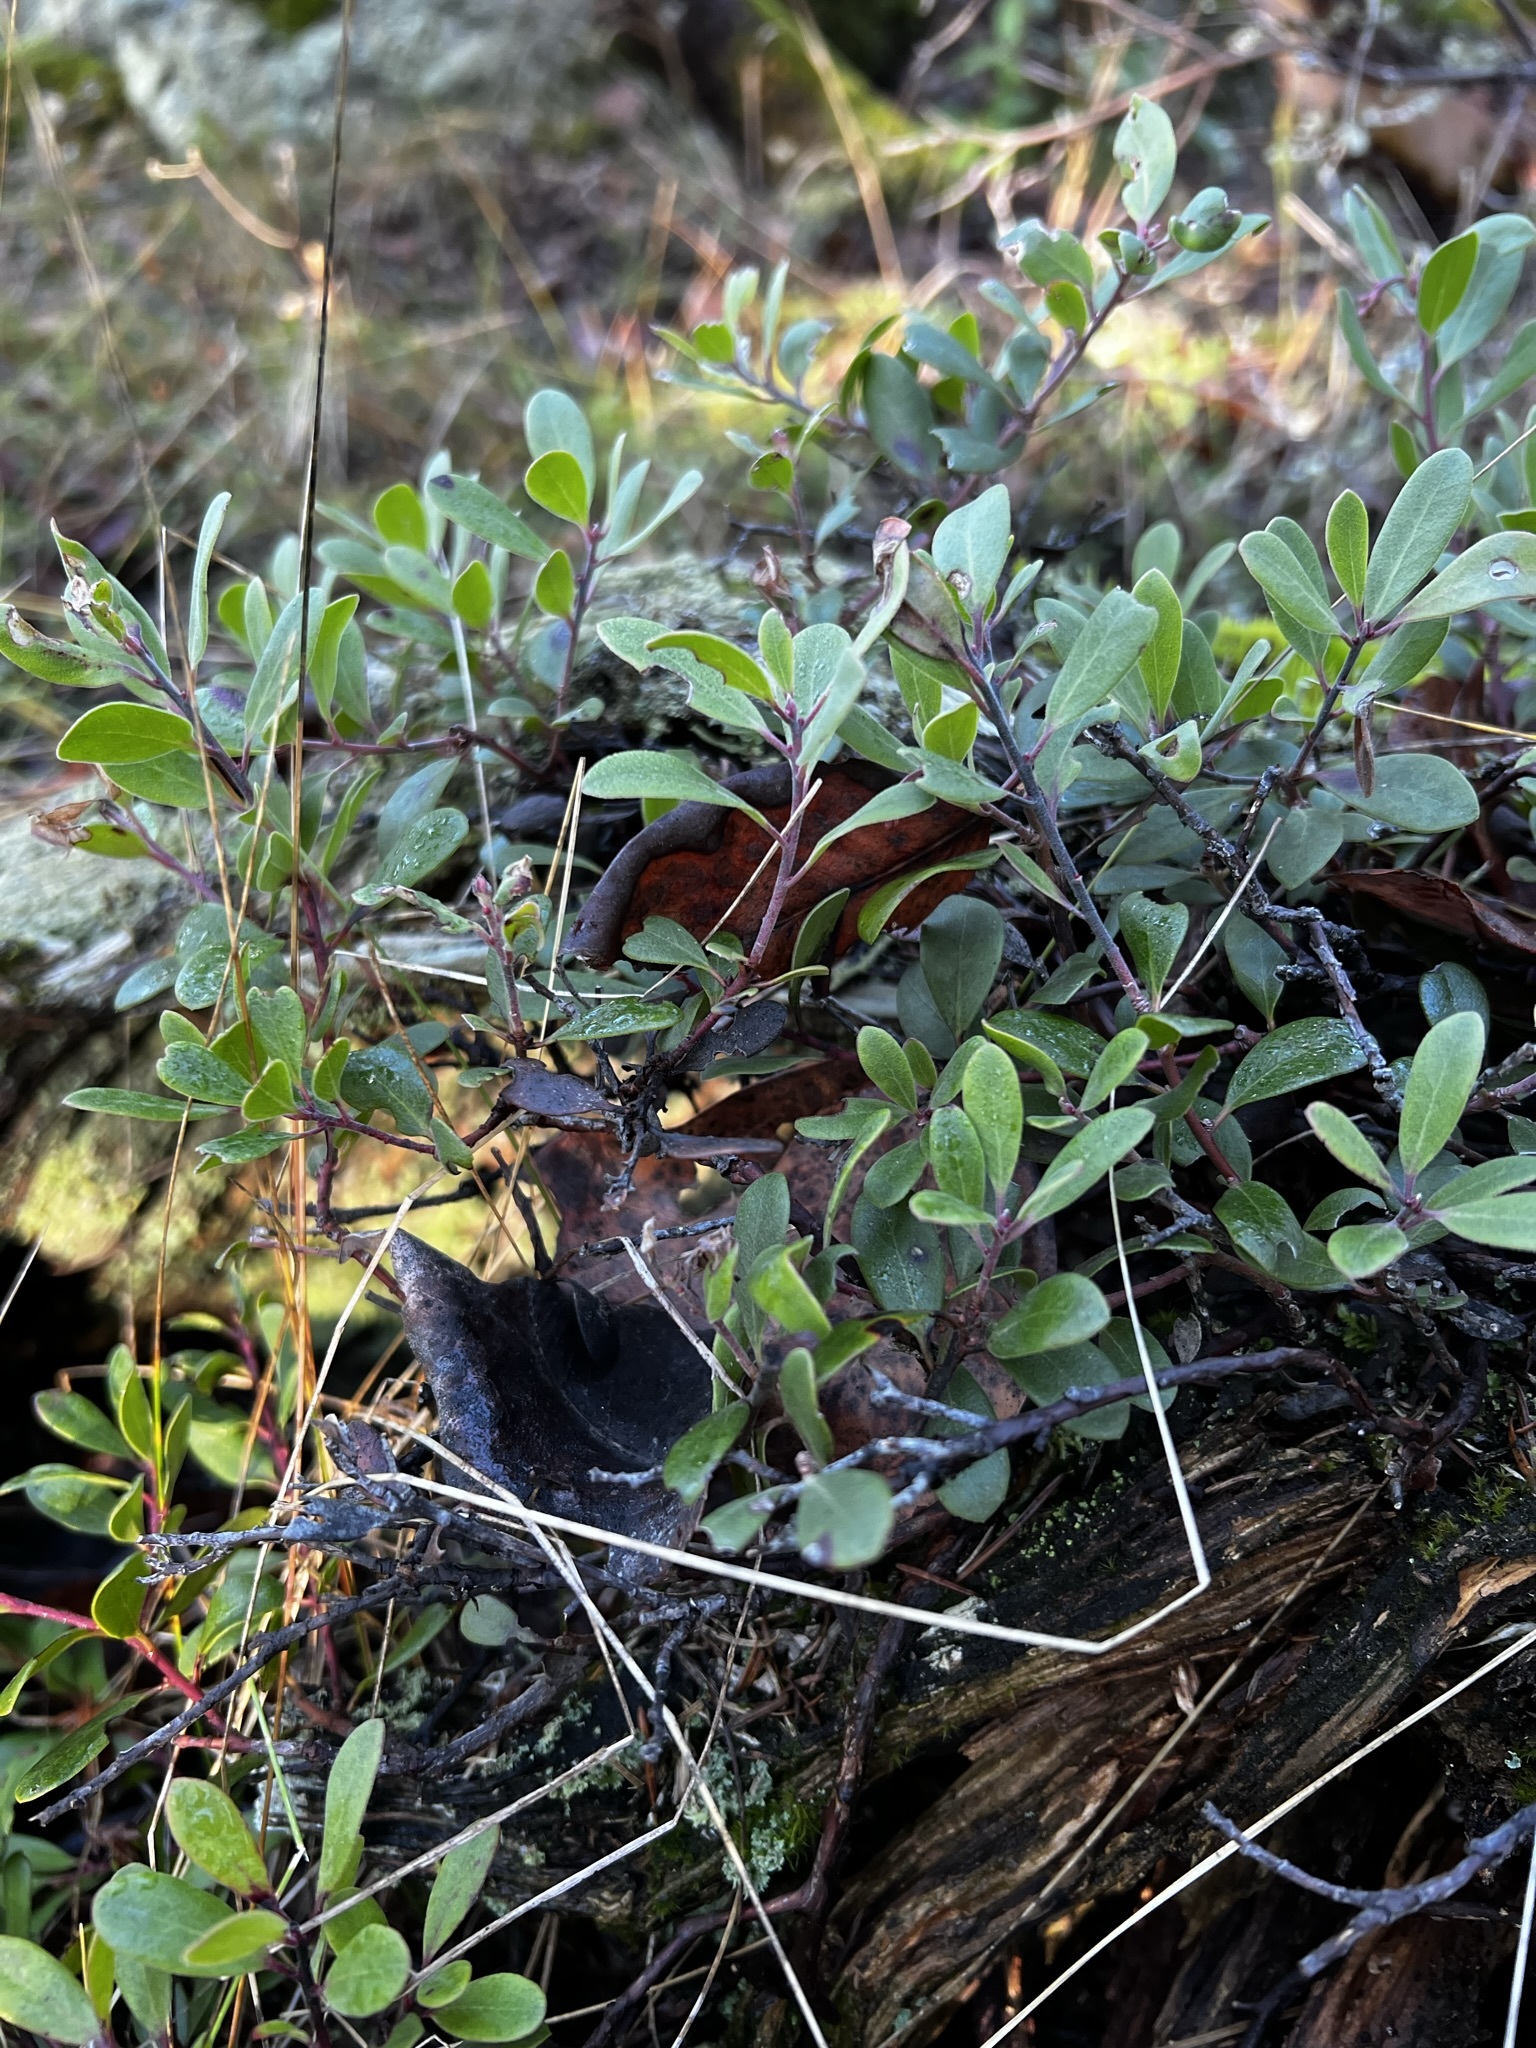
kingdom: Plantae
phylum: Tracheophyta
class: Magnoliopsida
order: Ericales
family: Ericaceae
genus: Arctostaphylos
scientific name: Arctostaphylos uva-ursi
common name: Bearberry
